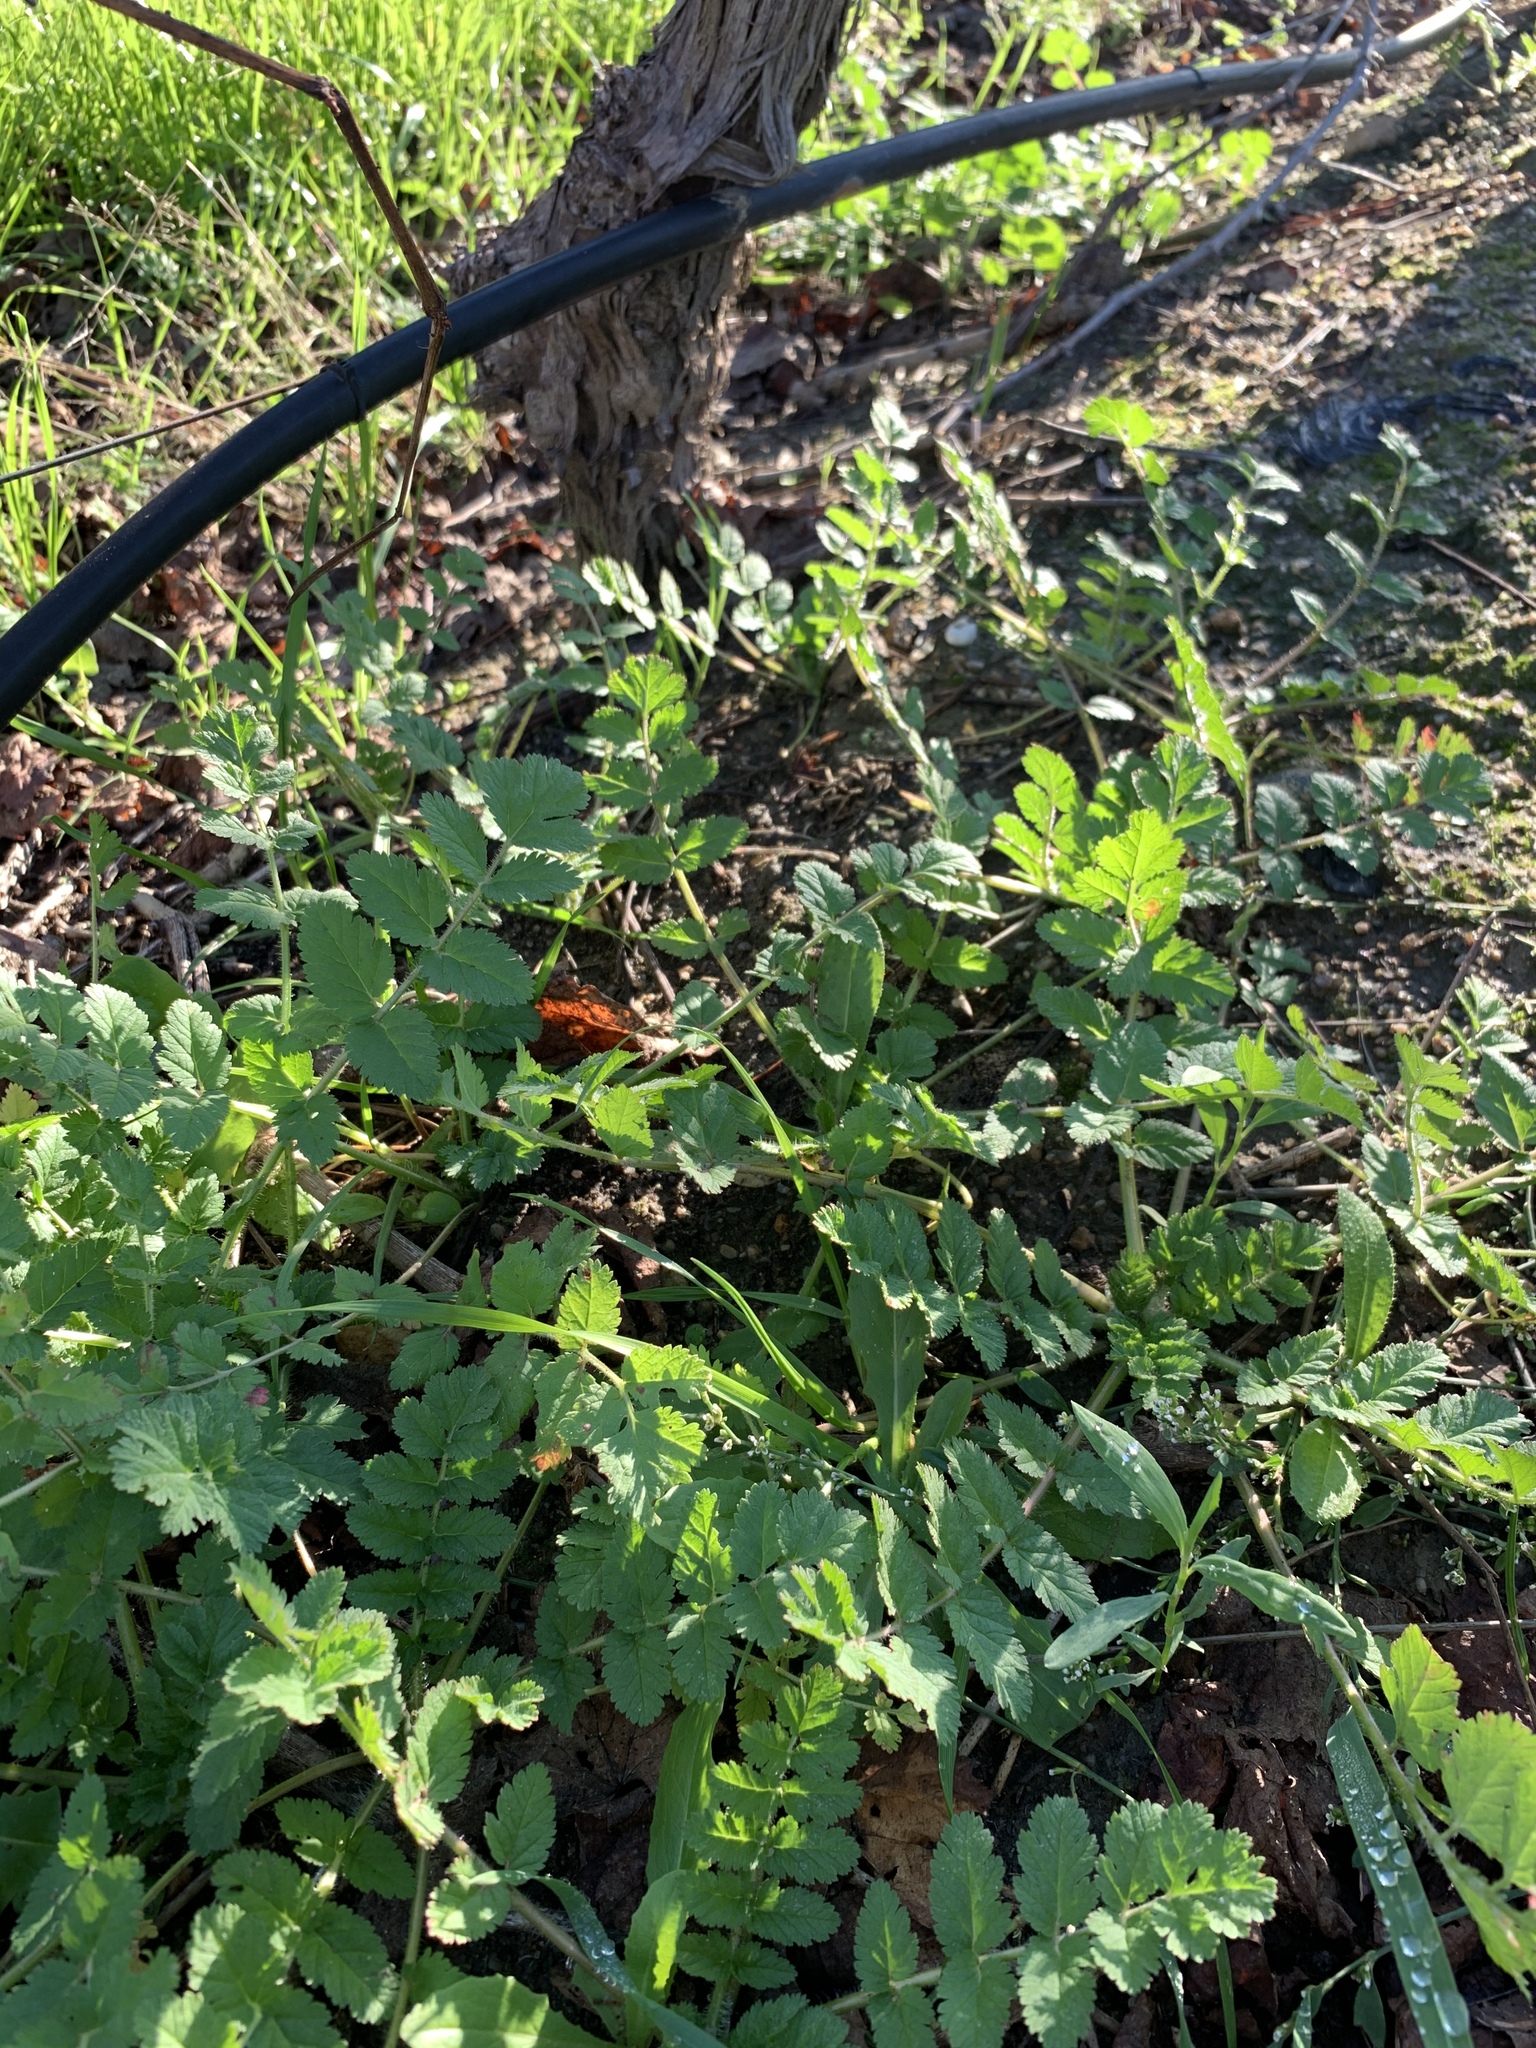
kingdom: Plantae
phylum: Tracheophyta
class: Magnoliopsida
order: Geraniales
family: Geraniaceae
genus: Erodium
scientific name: Erodium moschatum
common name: Musk stork's-bill
